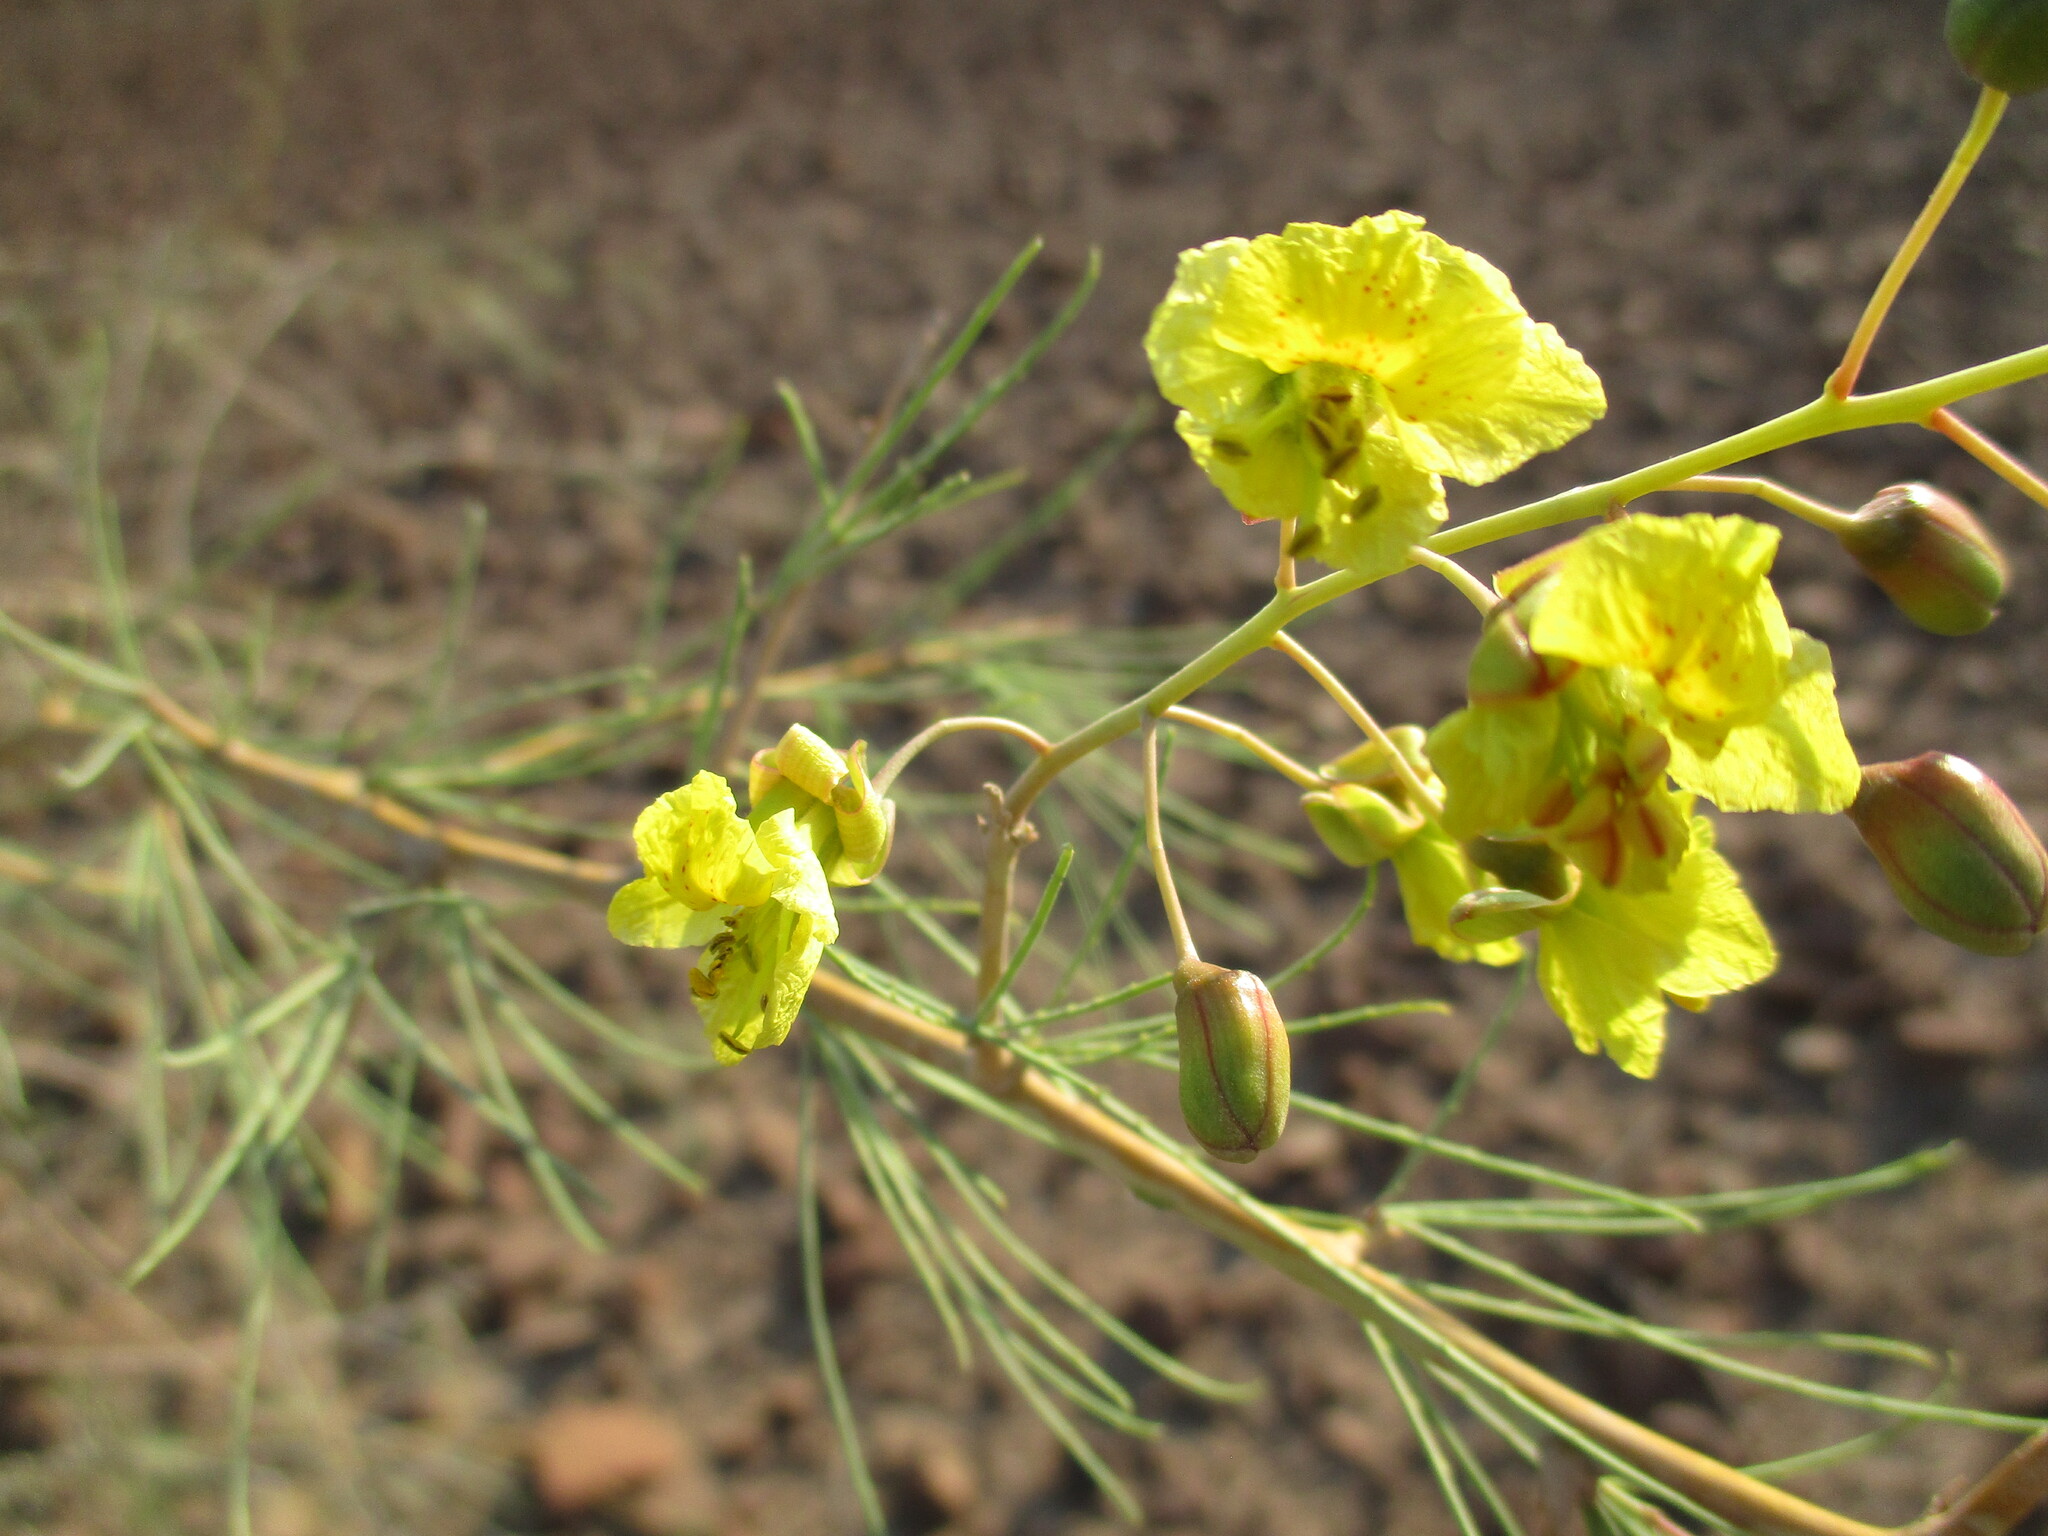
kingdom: Plantae
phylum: Tracheophyta
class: Magnoliopsida
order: Fabales
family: Fabaceae
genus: Parkinsonia
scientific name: Parkinsonia africana
